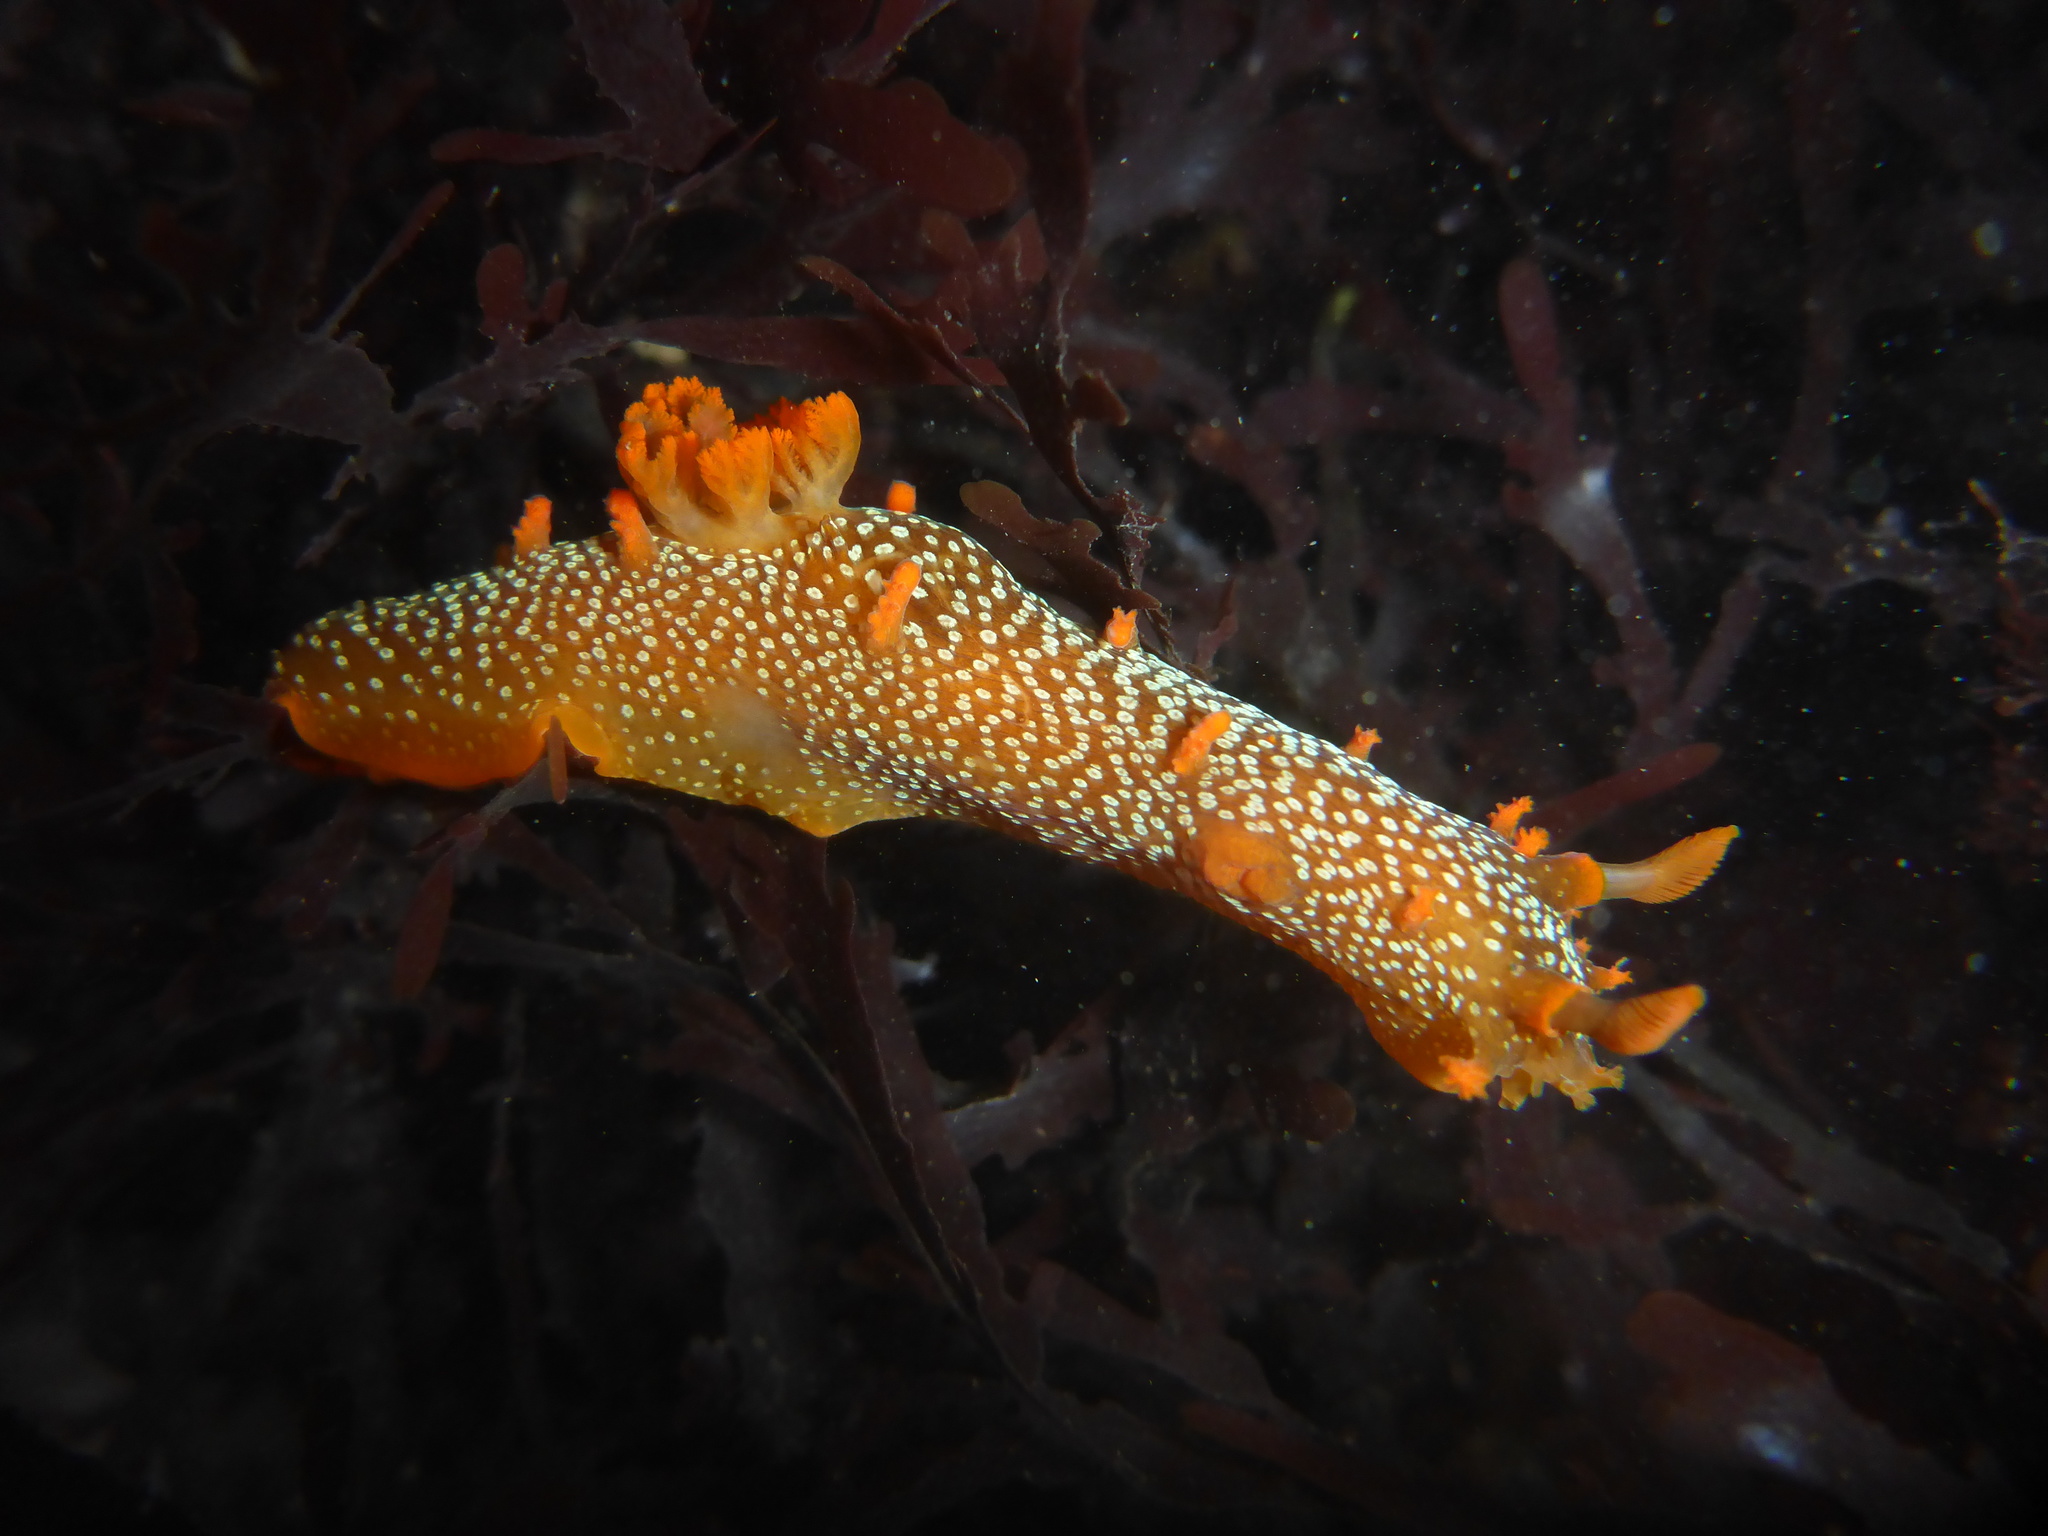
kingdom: Animalia
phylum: Mollusca
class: Gastropoda
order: Nudibranchia
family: Polyceridae
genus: Triopha
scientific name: Triopha maculata
